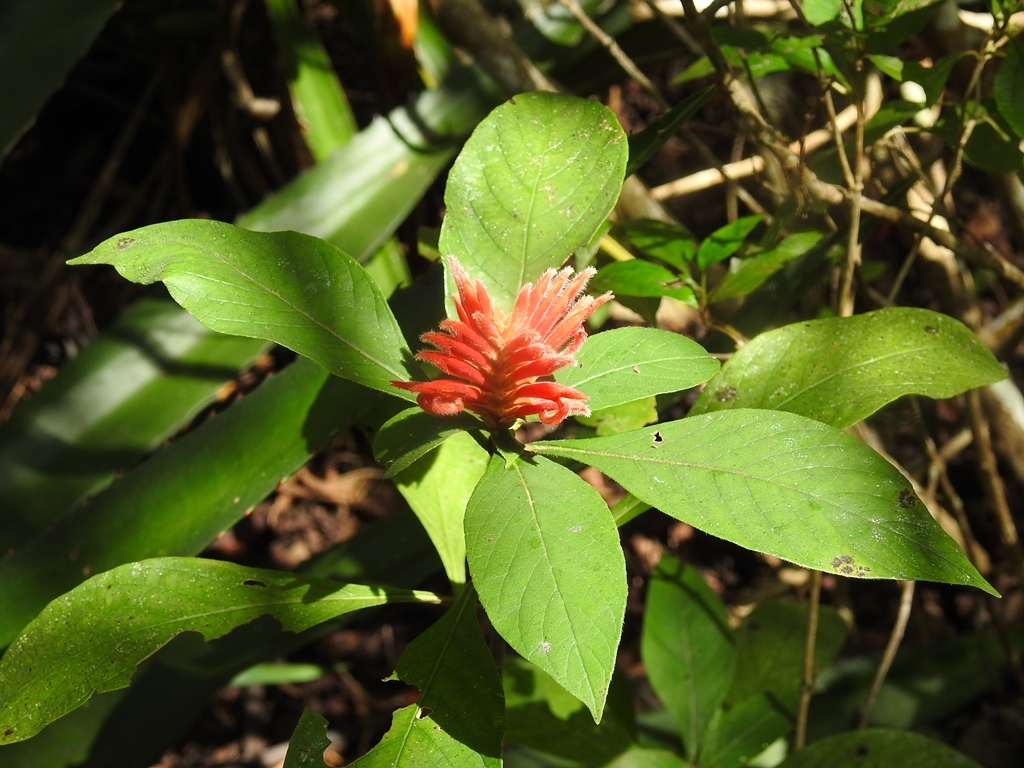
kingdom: Plantae
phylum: Tracheophyta
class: Magnoliopsida
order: Lamiales
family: Acanthaceae
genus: Aphelandra
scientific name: Aphelandra scabra
